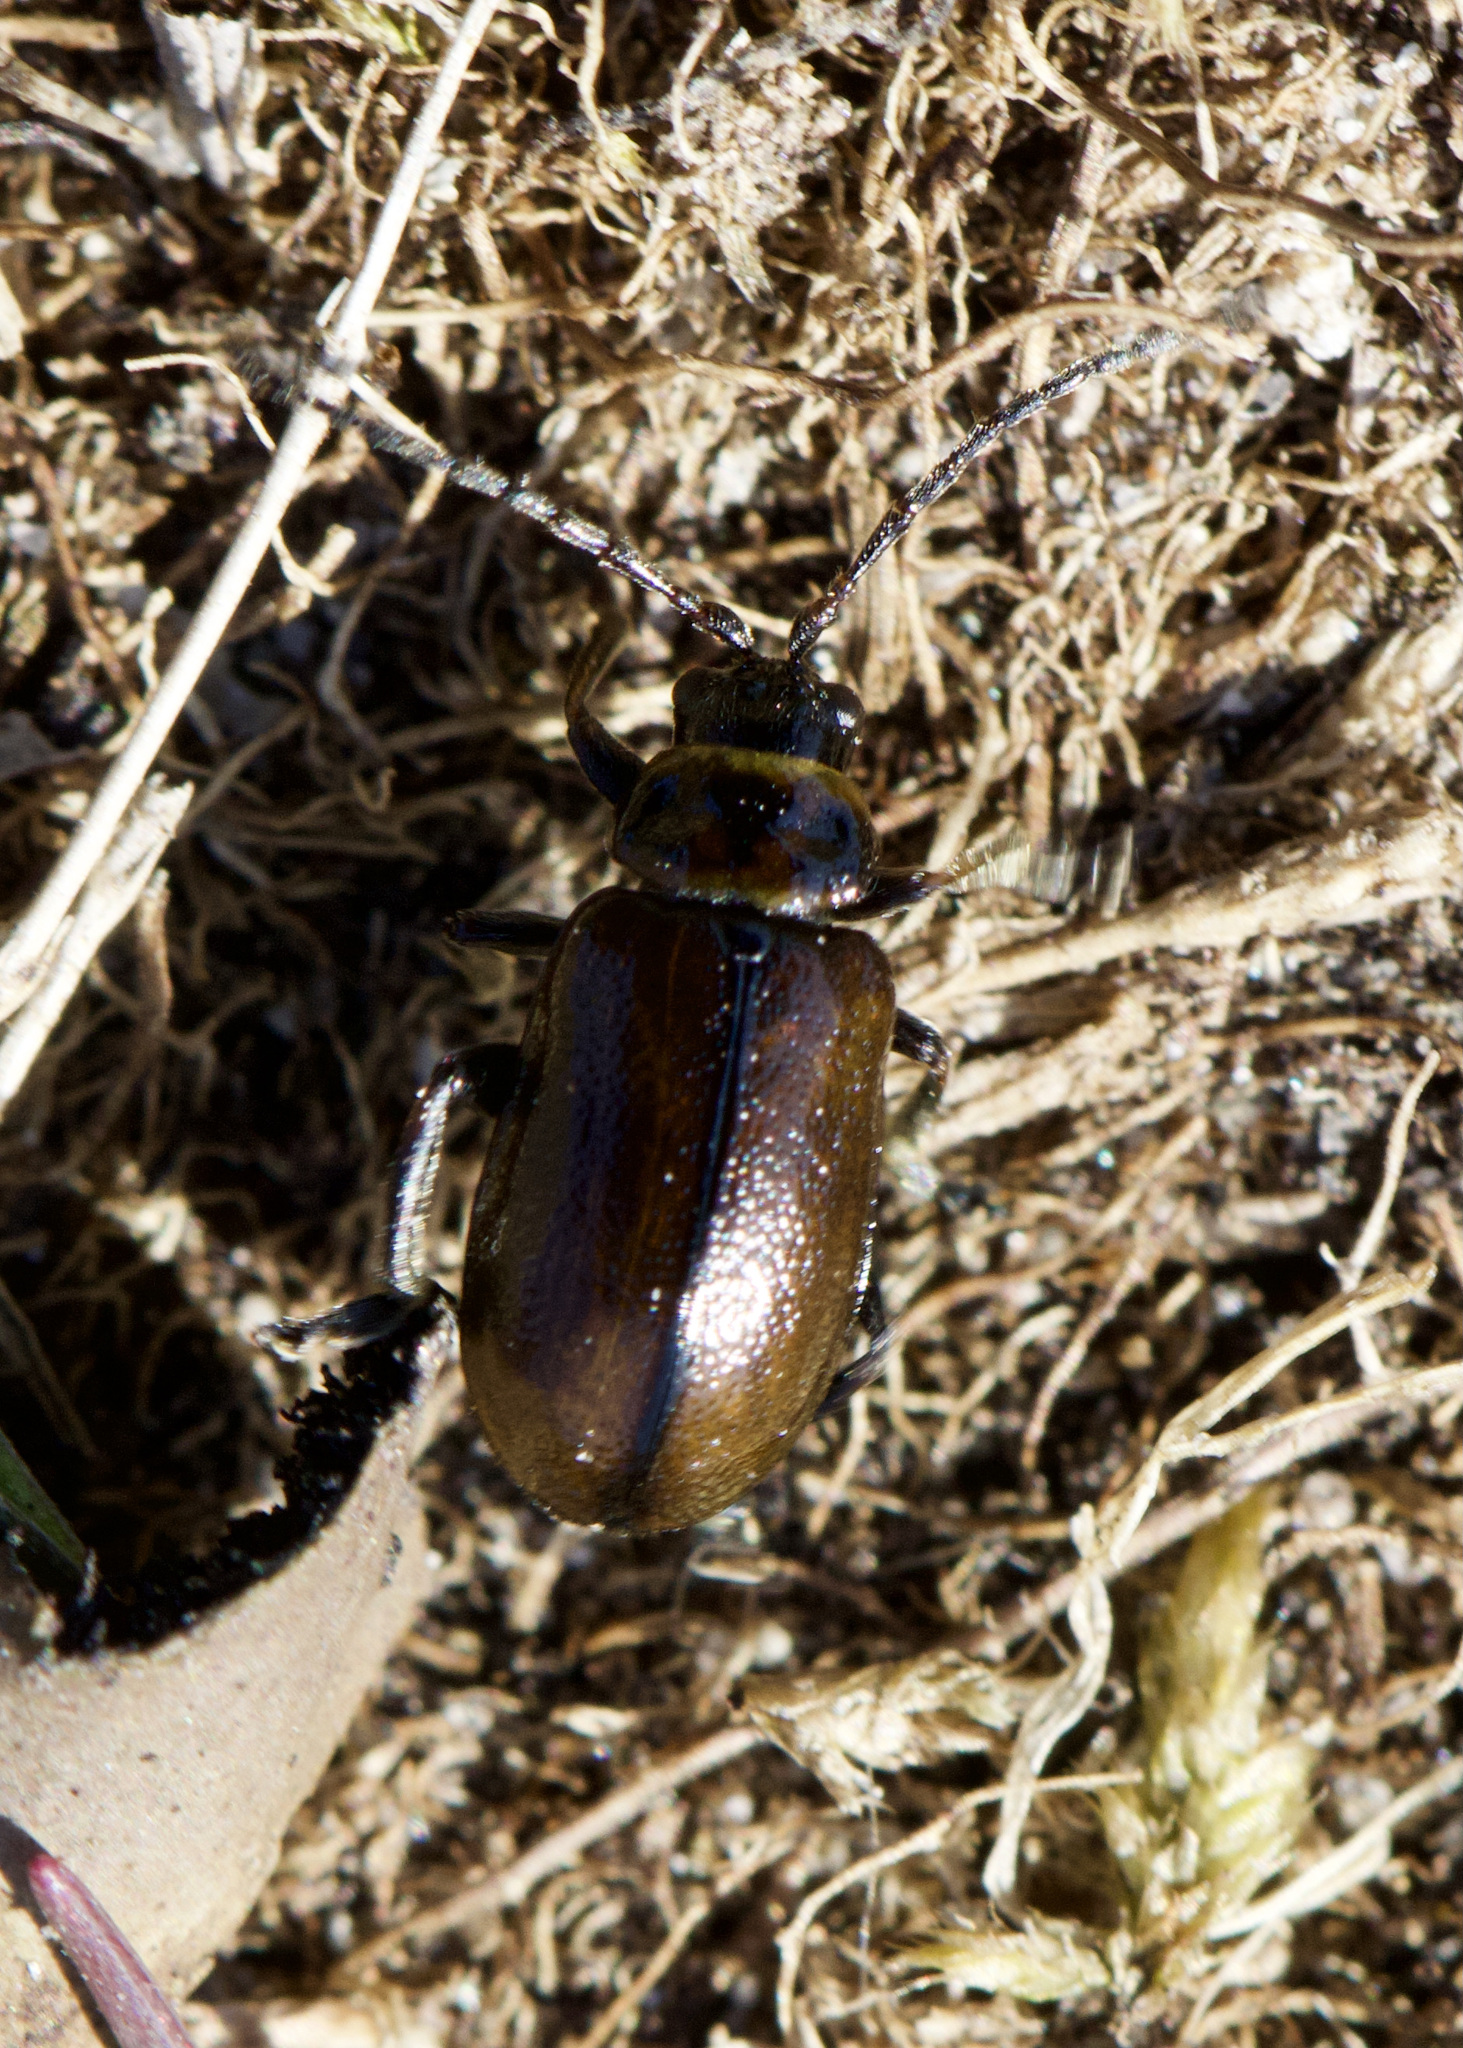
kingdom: Animalia
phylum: Arthropoda
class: Insecta
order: Coleoptera
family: Chrysomelidae
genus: Lochmaea
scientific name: Lochmaea suturalis
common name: Heather beetle
